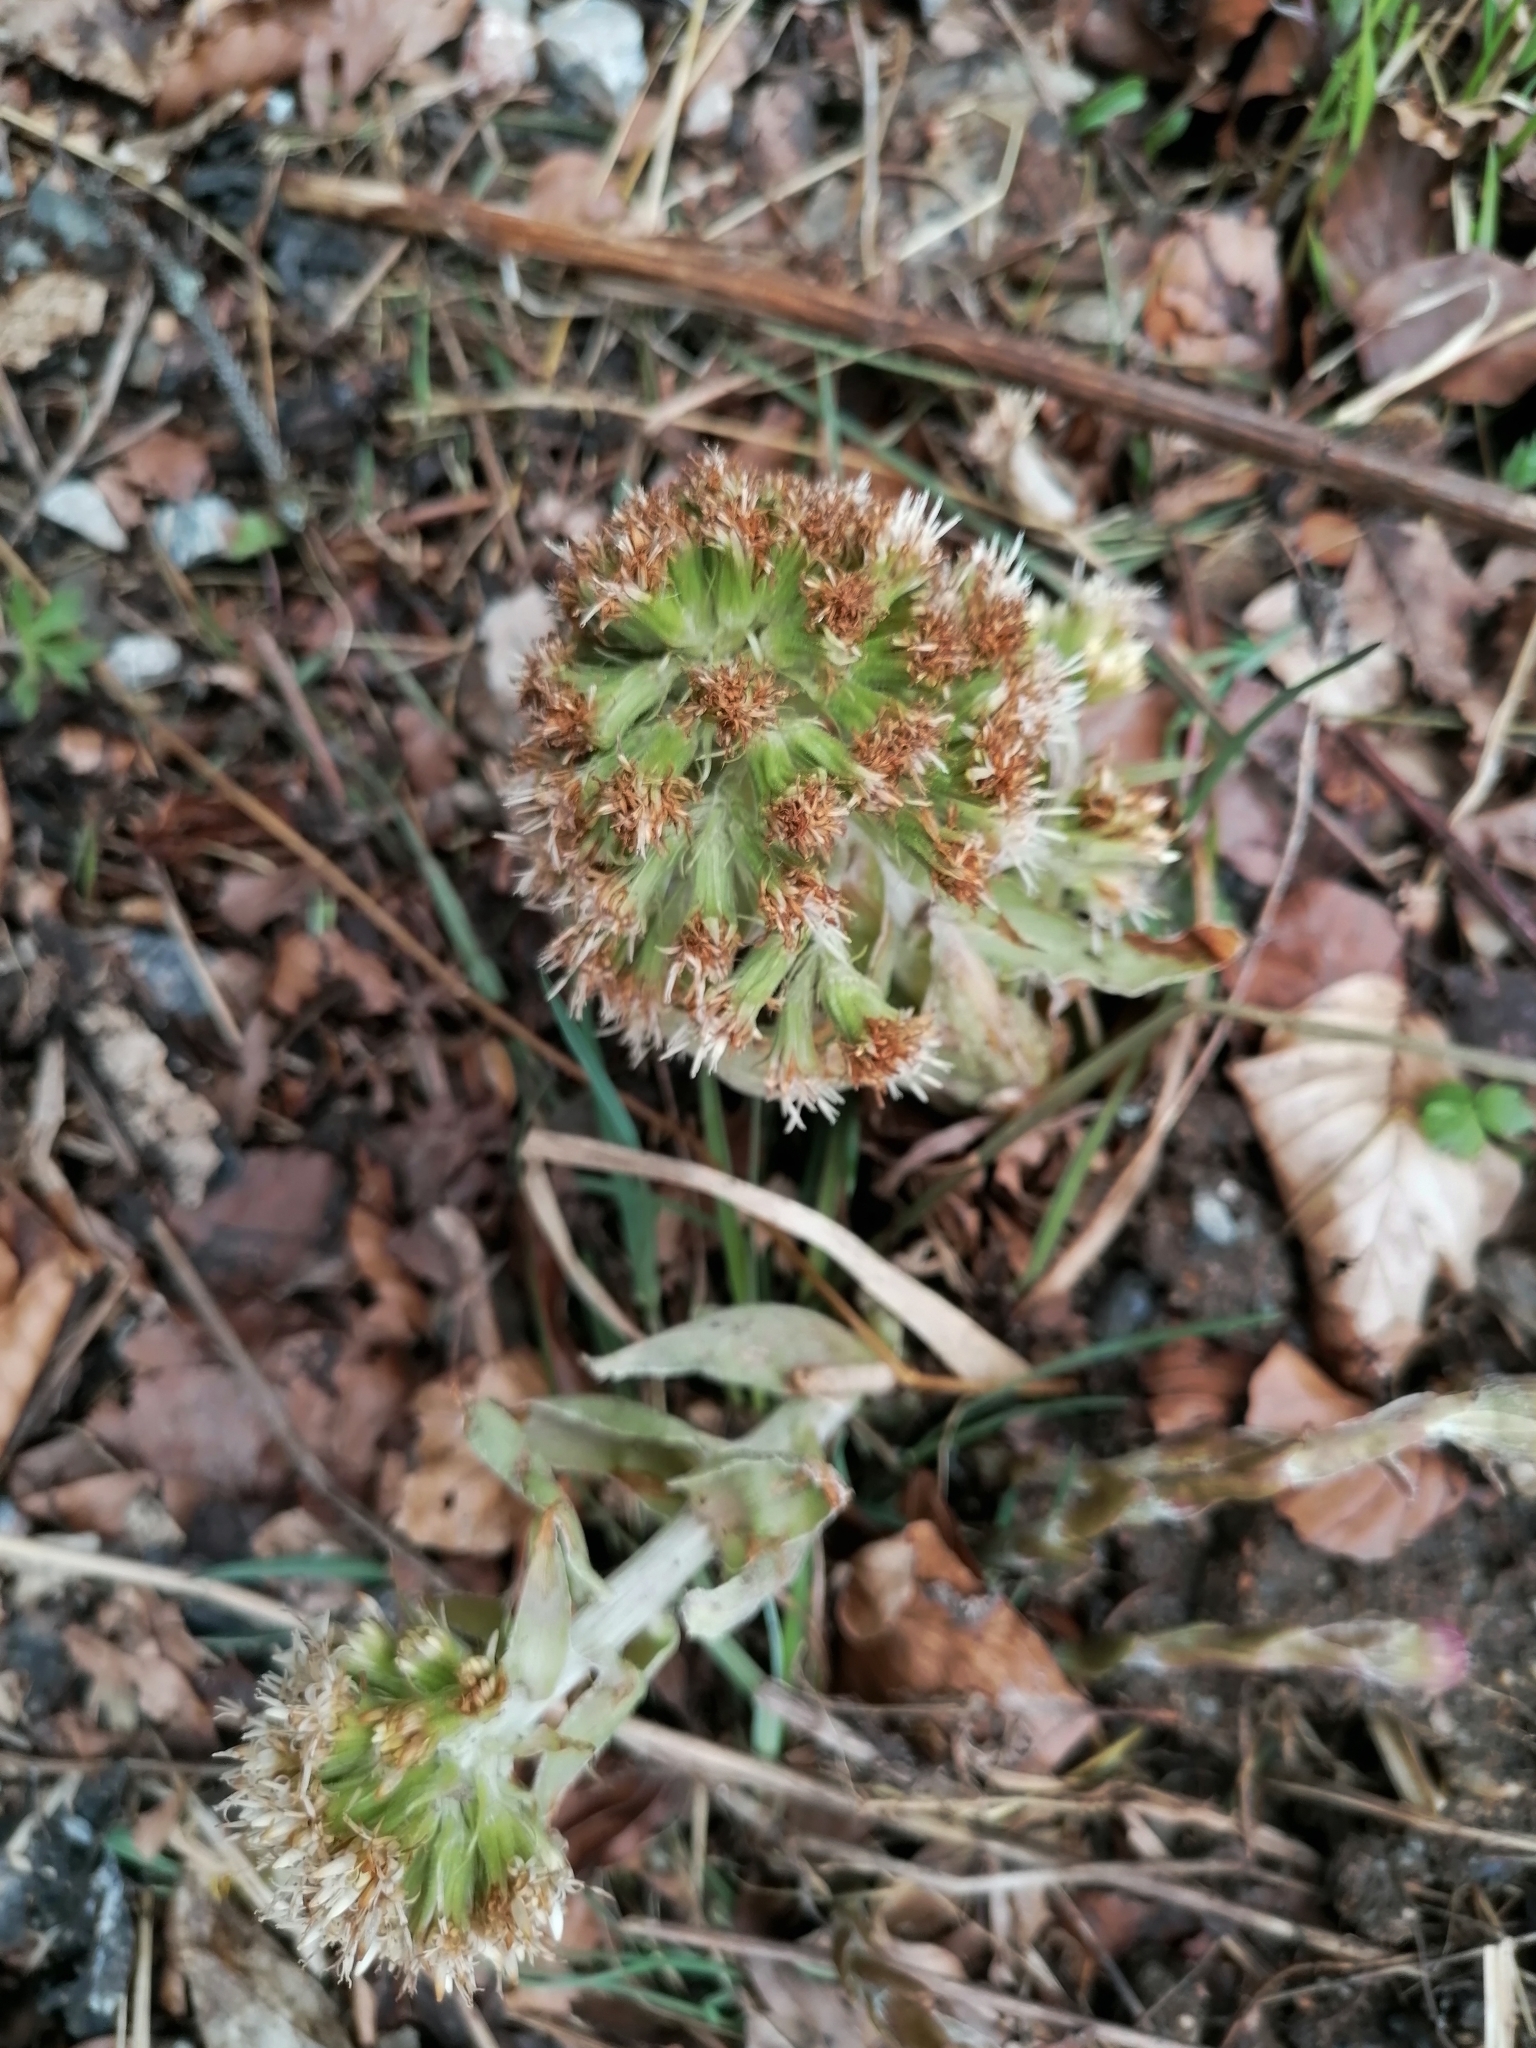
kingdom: Plantae
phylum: Tracheophyta
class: Magnoliopsida
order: Asterales
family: Asteraceae
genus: Petasites
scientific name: Petasites albus
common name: White butterbur
